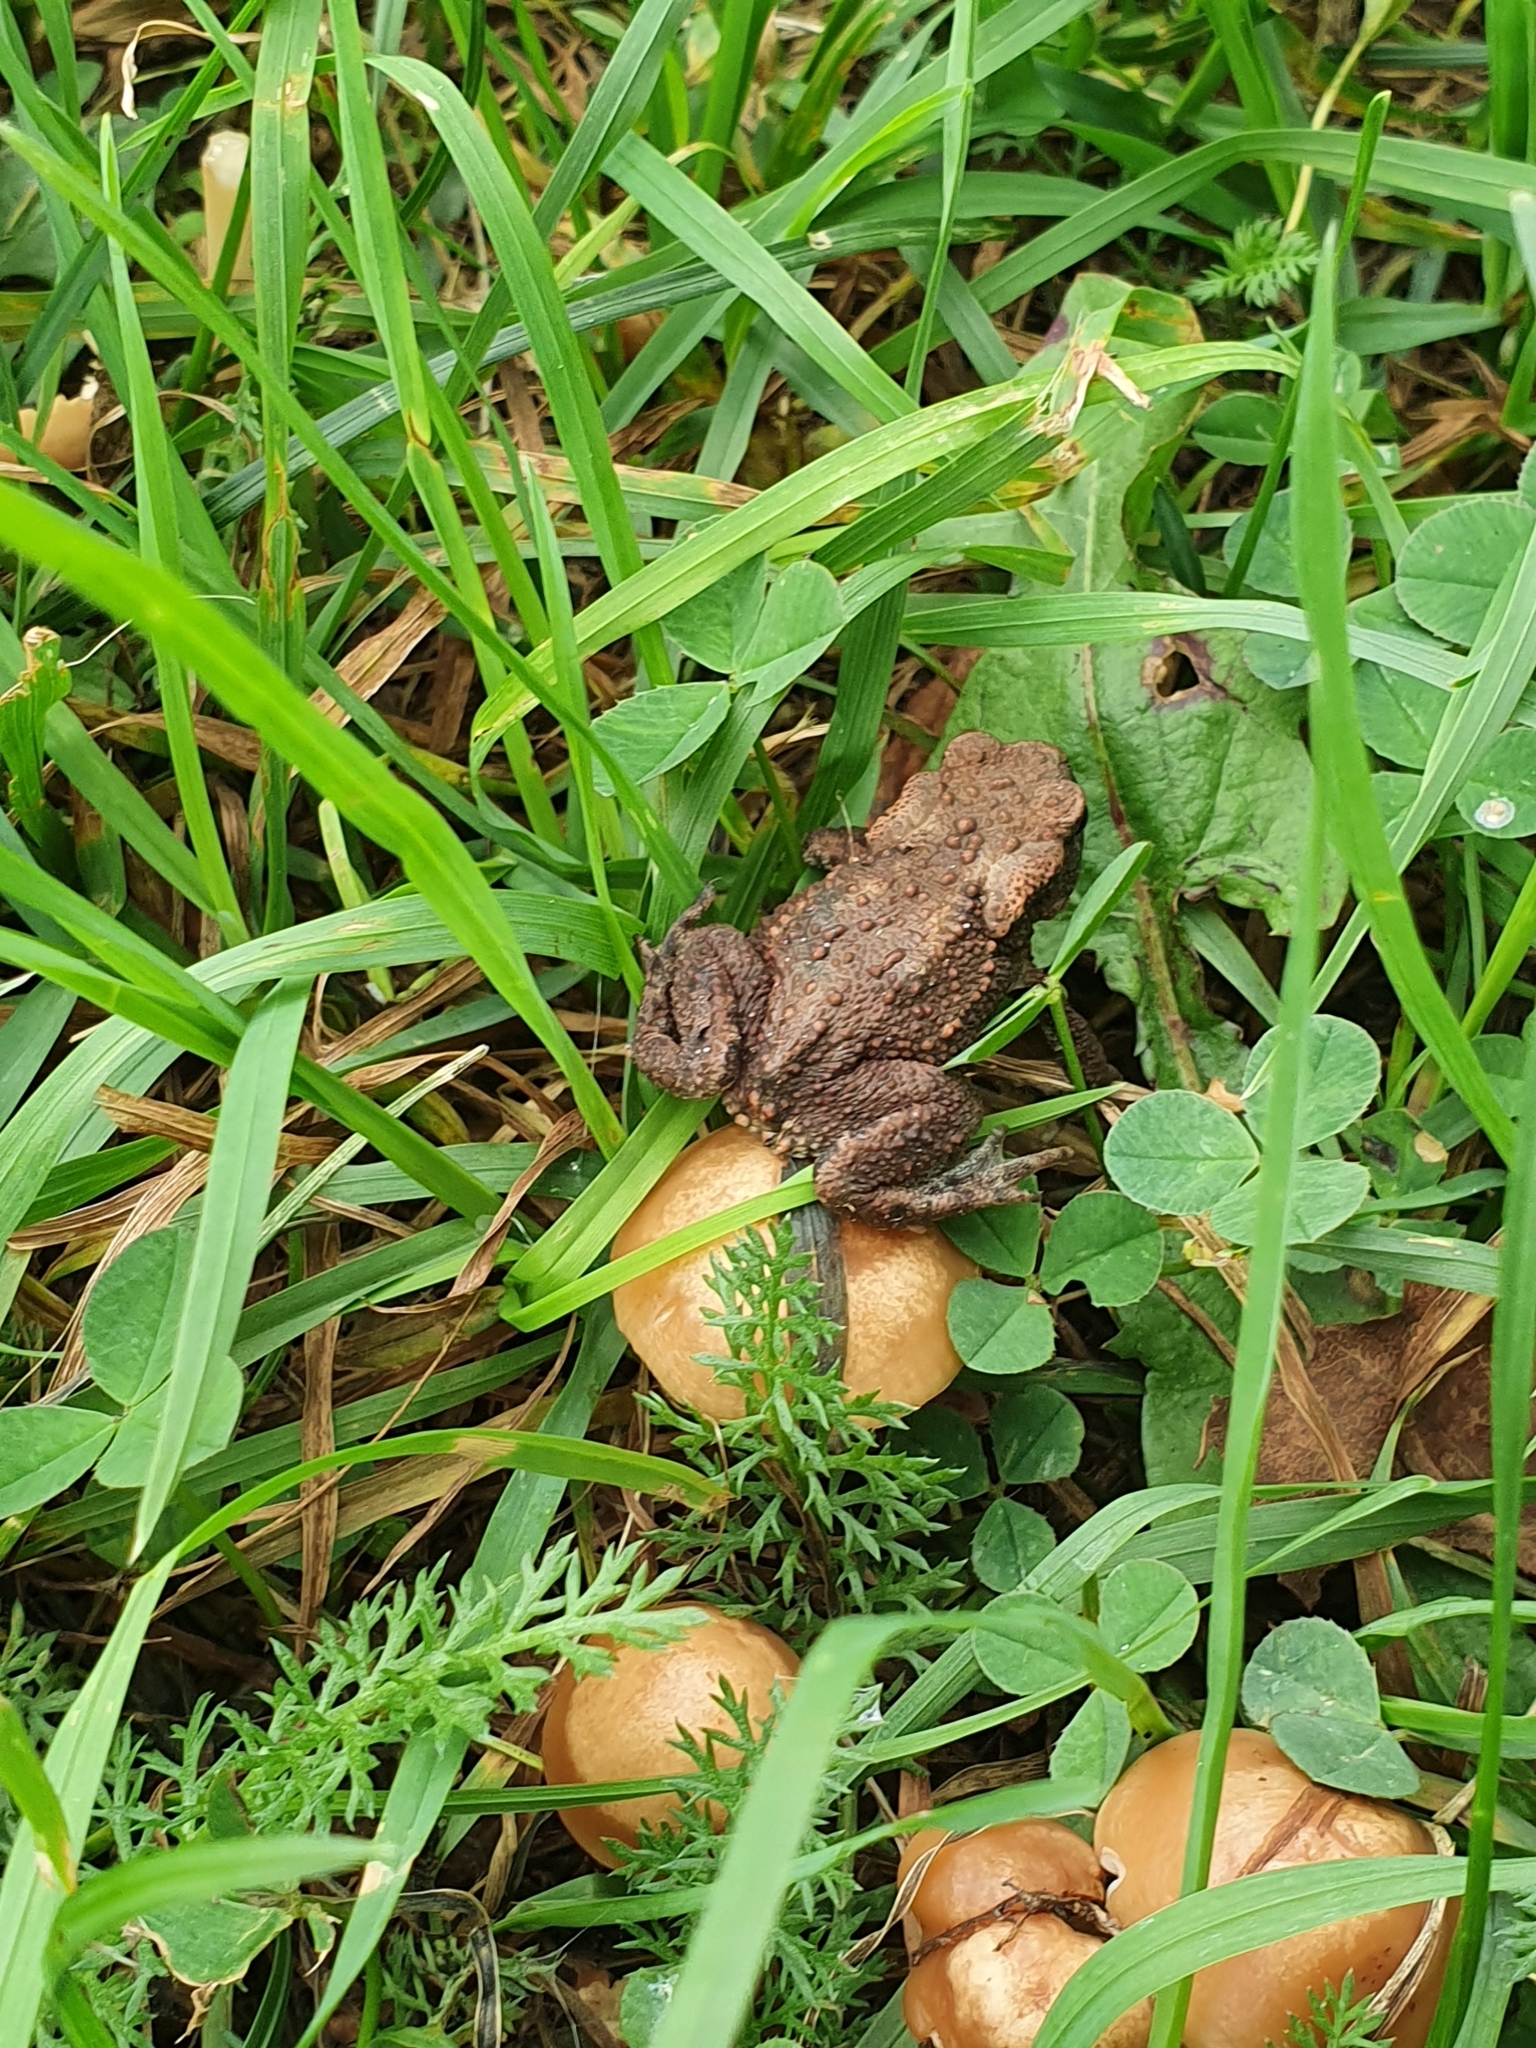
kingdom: Animalia
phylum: Chordata
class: Amphibia
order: Anura
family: Bufonidae
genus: Bufo
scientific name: Bufo bufo
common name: Common toad
